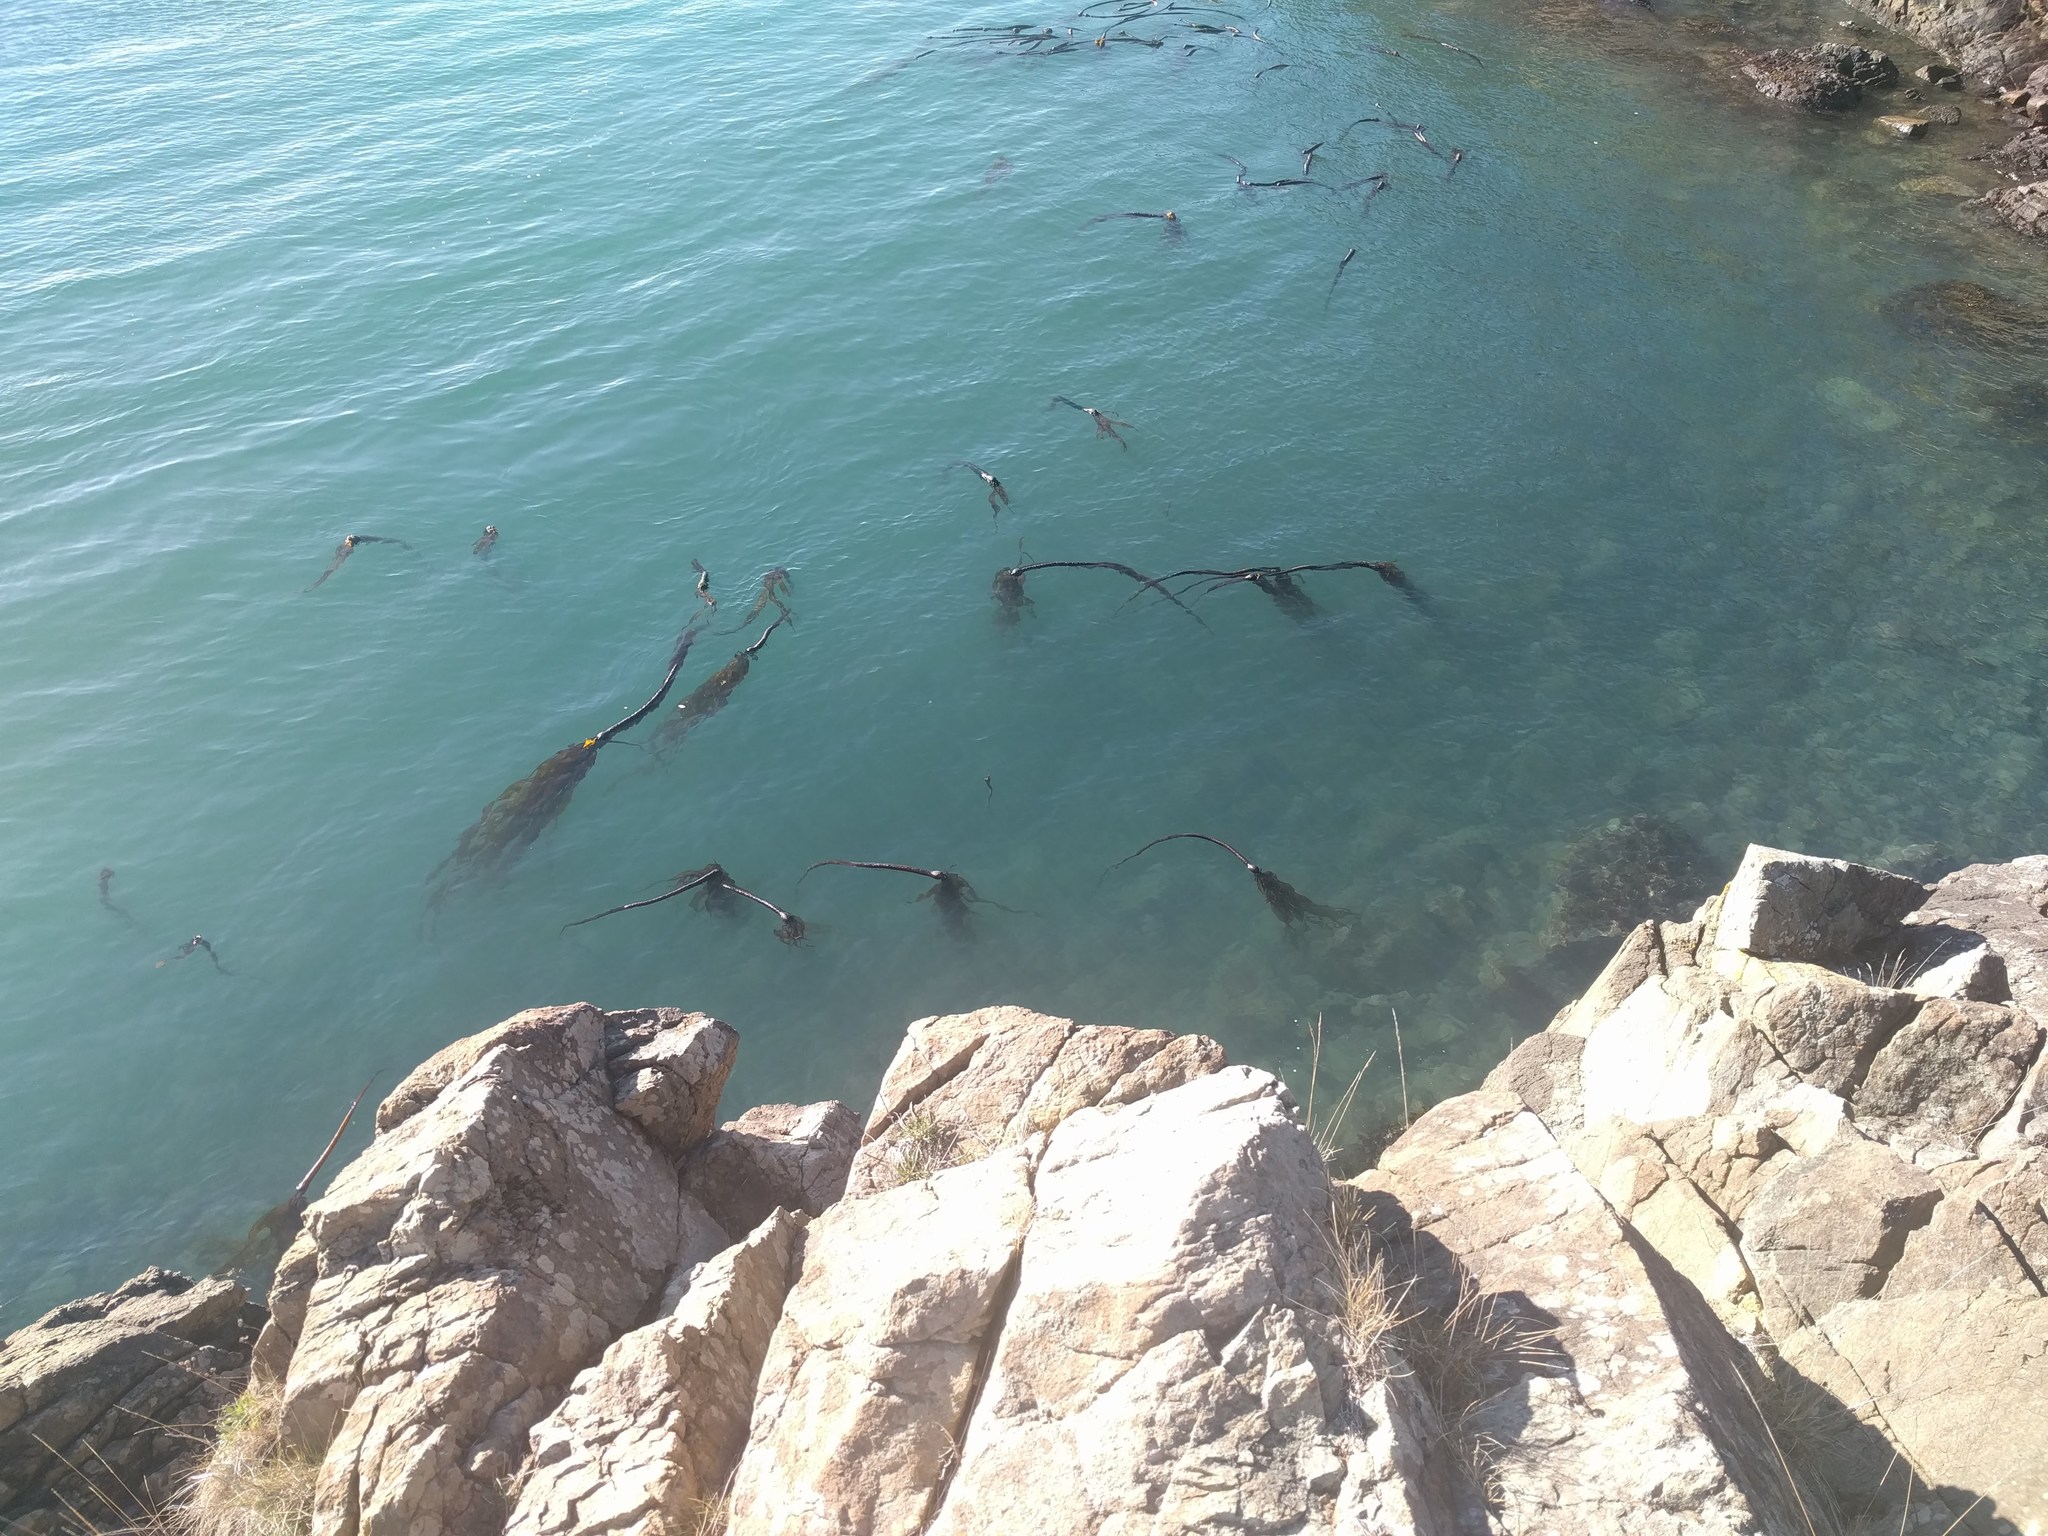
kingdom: Chromista
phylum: Ochrophyta
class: Phaeophyceae
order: Laminariales
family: Laminariaceae
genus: Nereocystis
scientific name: Nereocystis luetkeana
